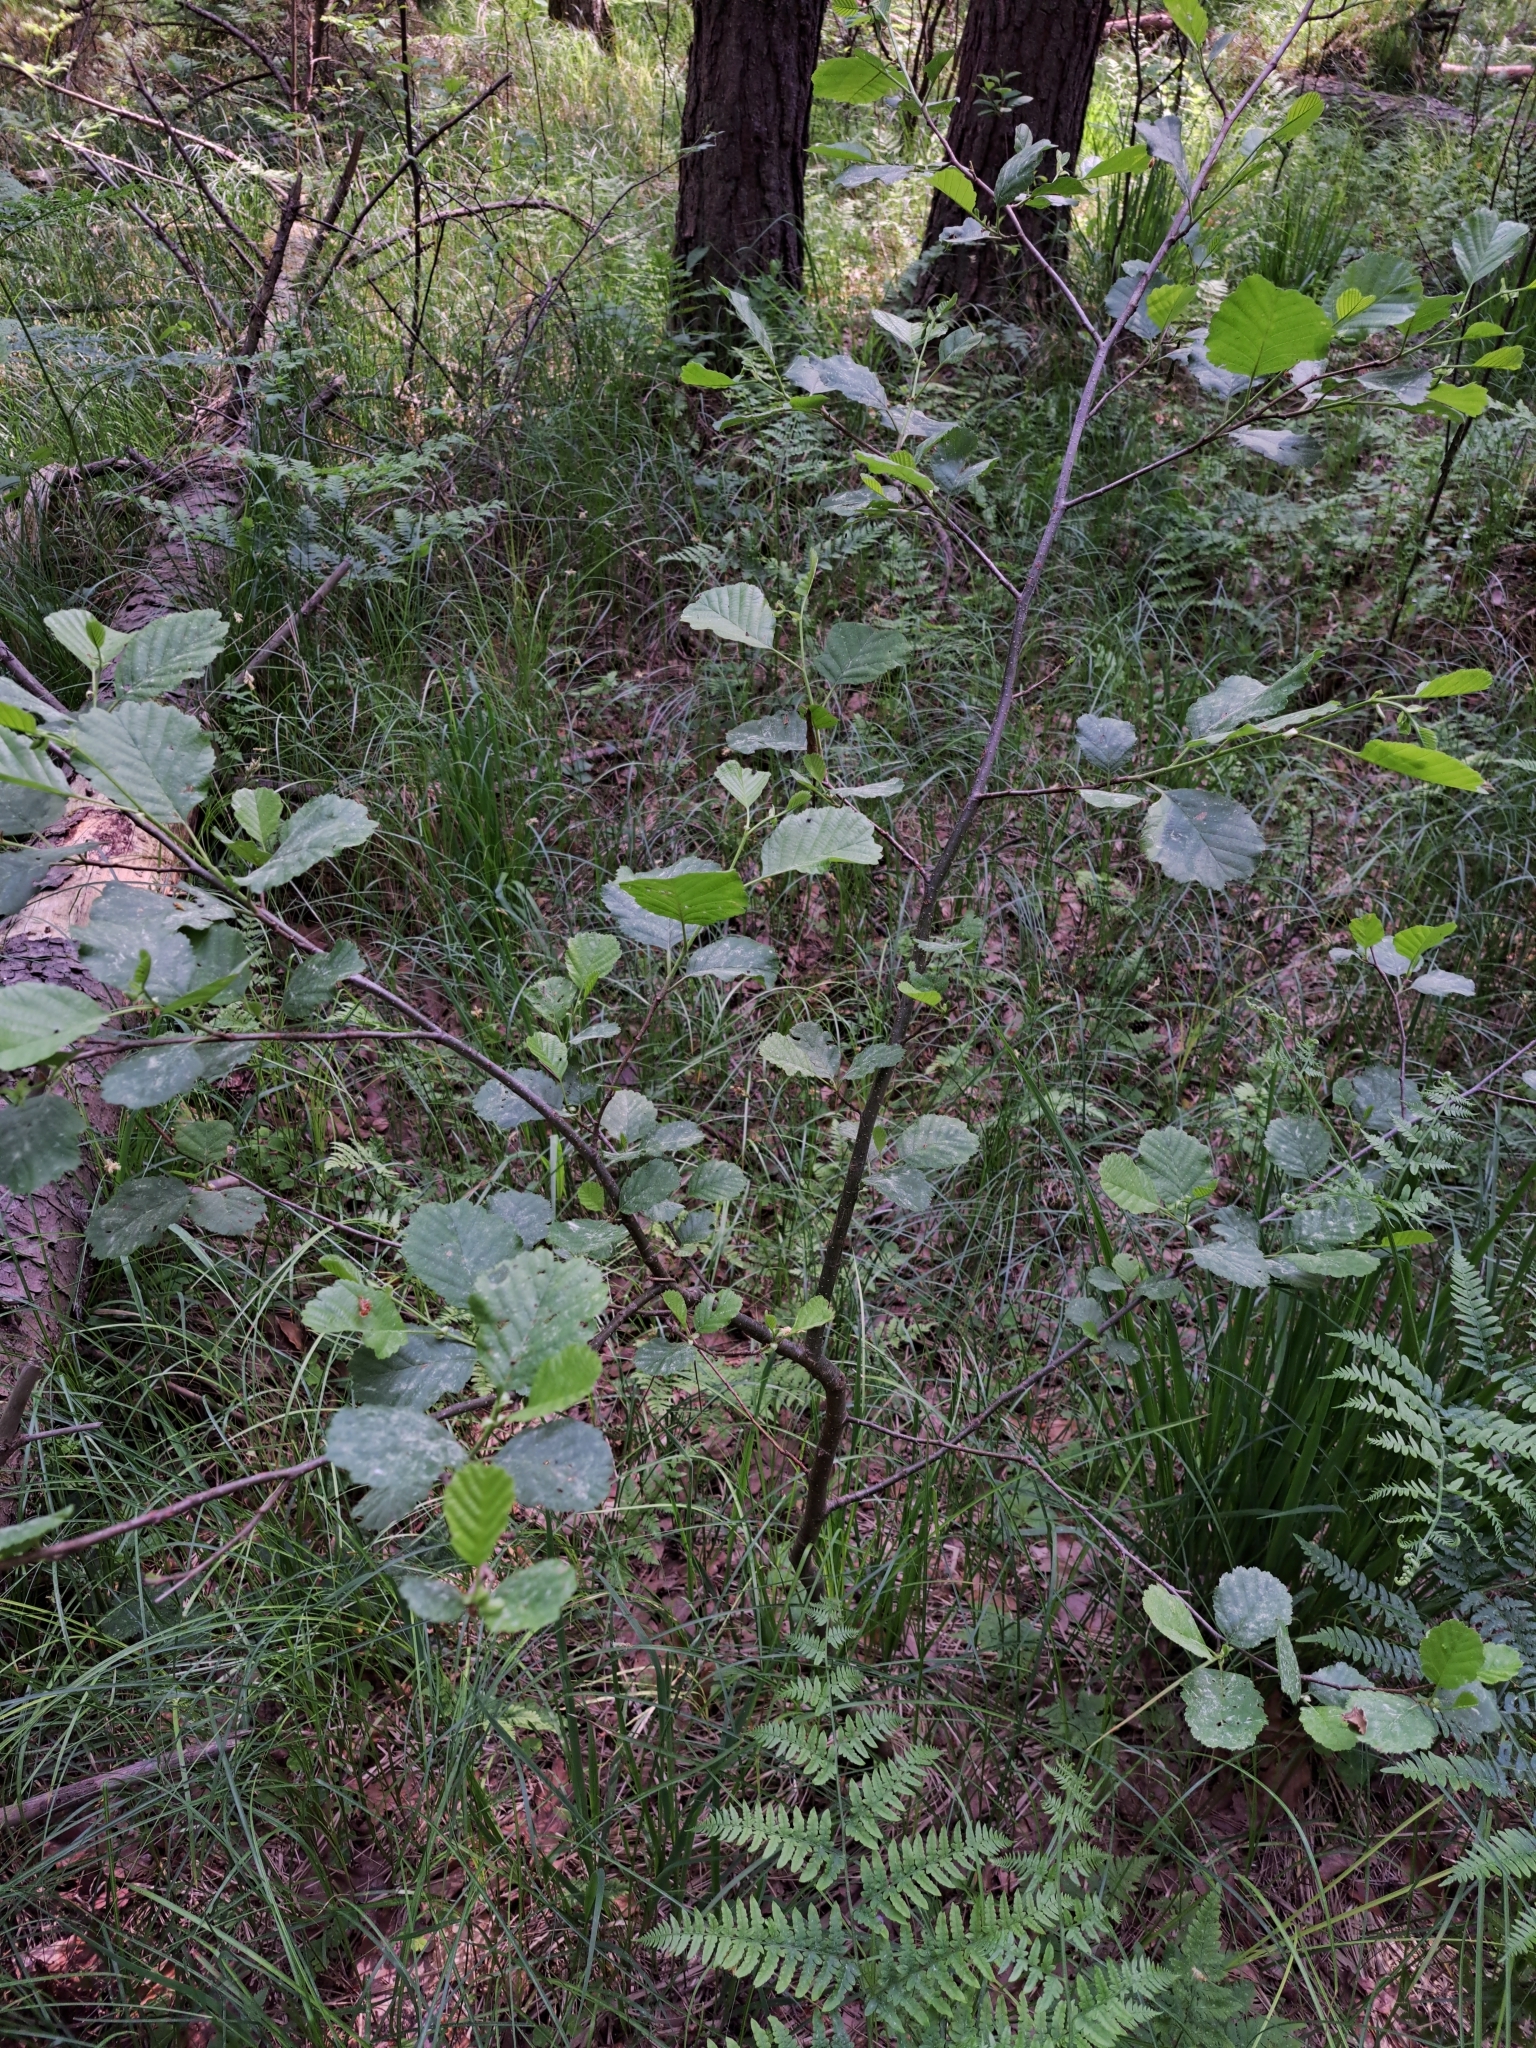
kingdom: Plantae
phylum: Tracheophyta
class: Magnoliopsida
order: Fagales
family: Betulaceae
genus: Alnus
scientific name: Alnus glutinosa
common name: Black alder
